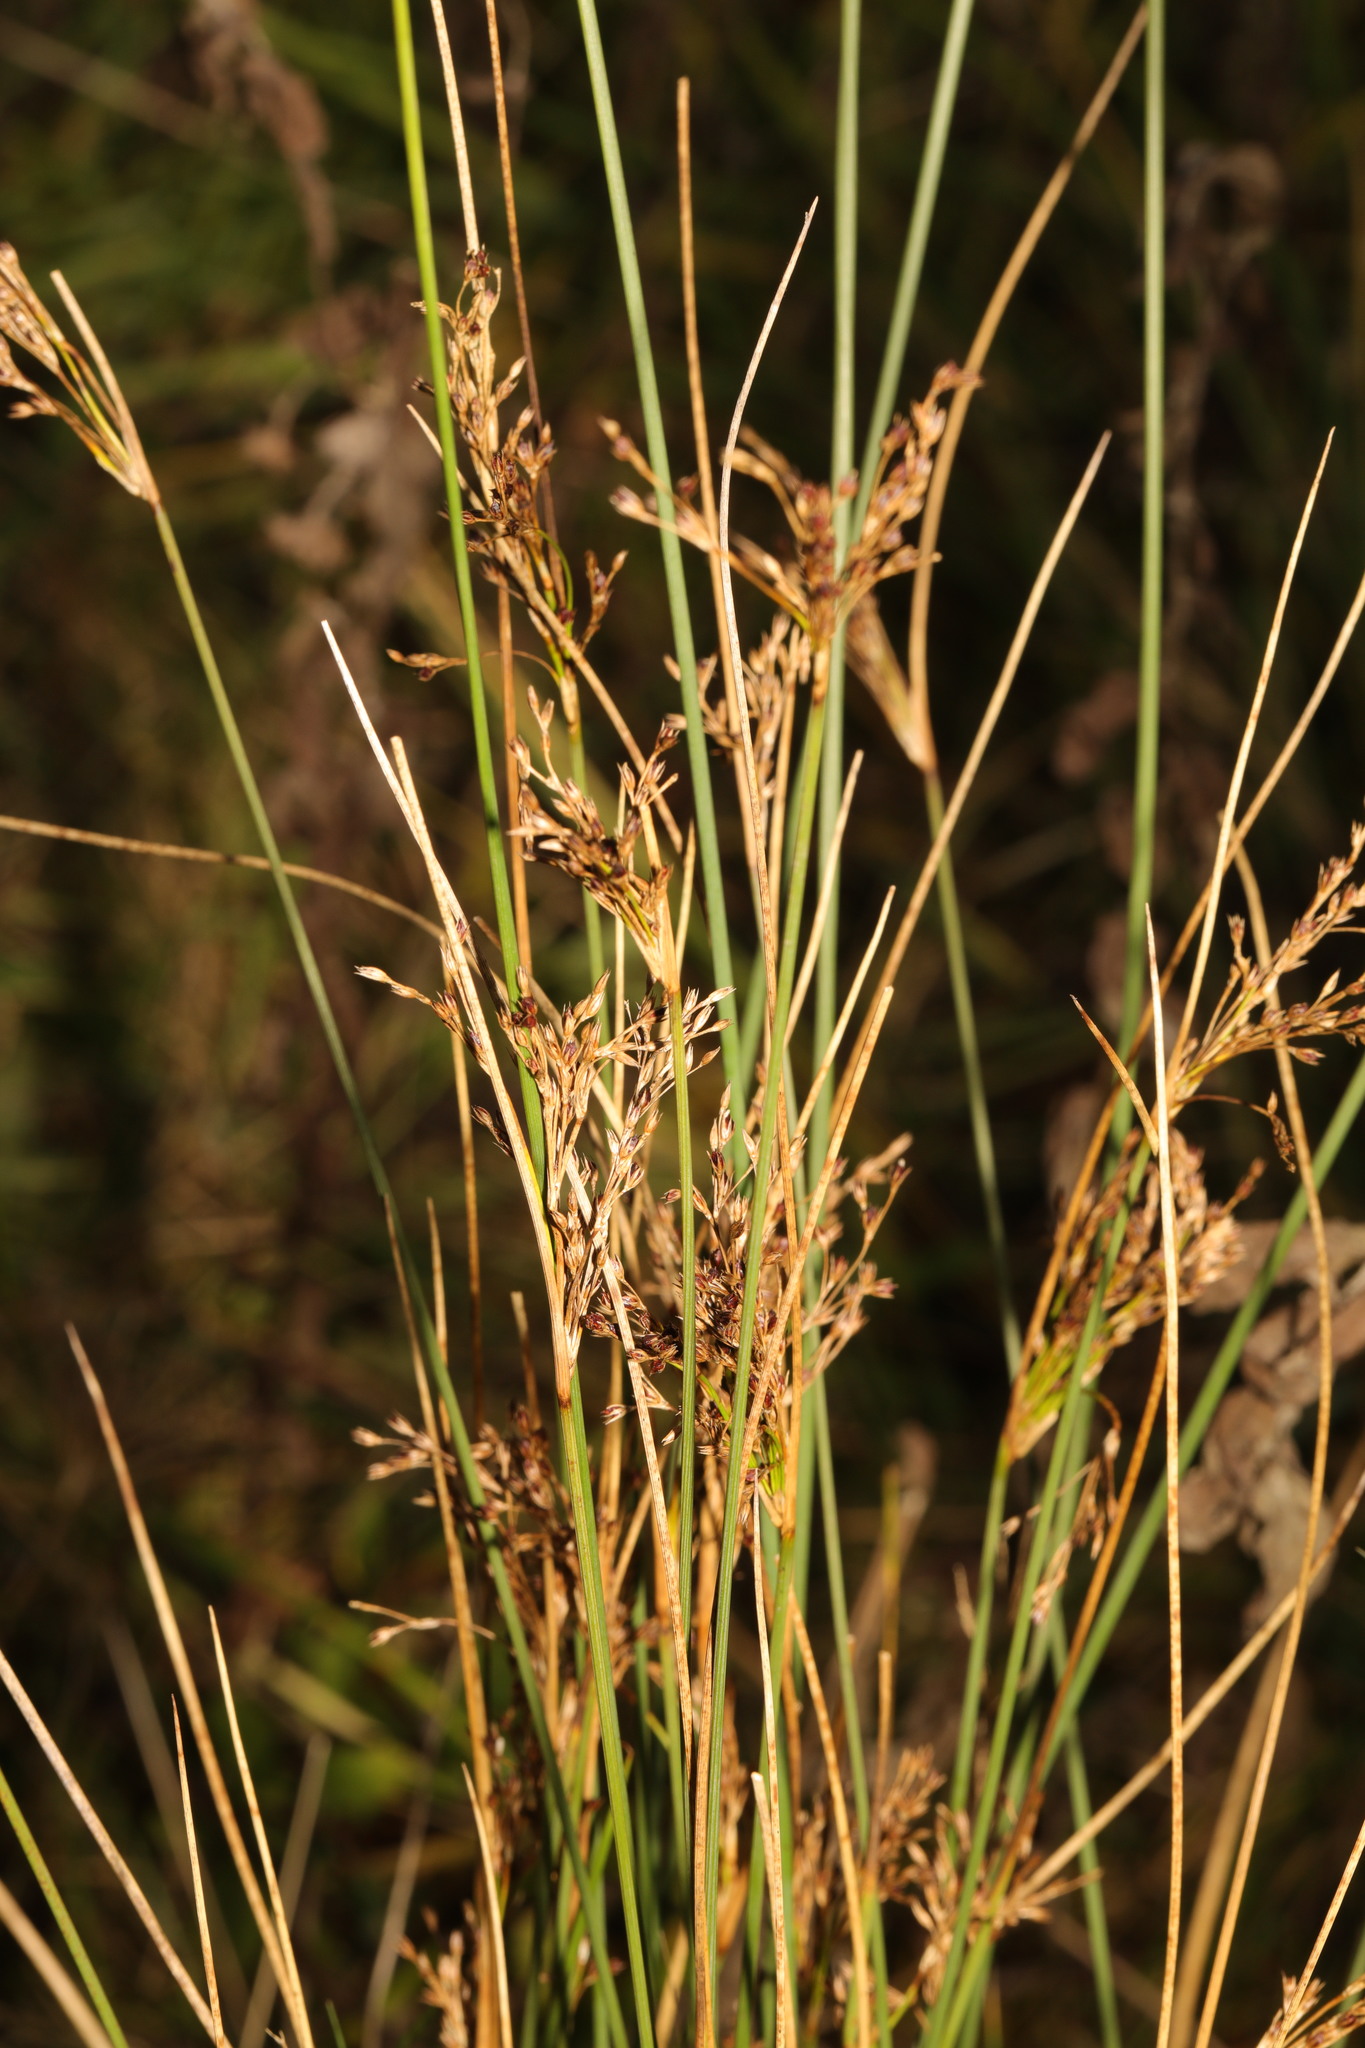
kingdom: Plantae
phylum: Tracheophyta
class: Liliopsida
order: Poales
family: Juncaceae
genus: Juncus
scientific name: Juncus inflexus
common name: Hard rush
